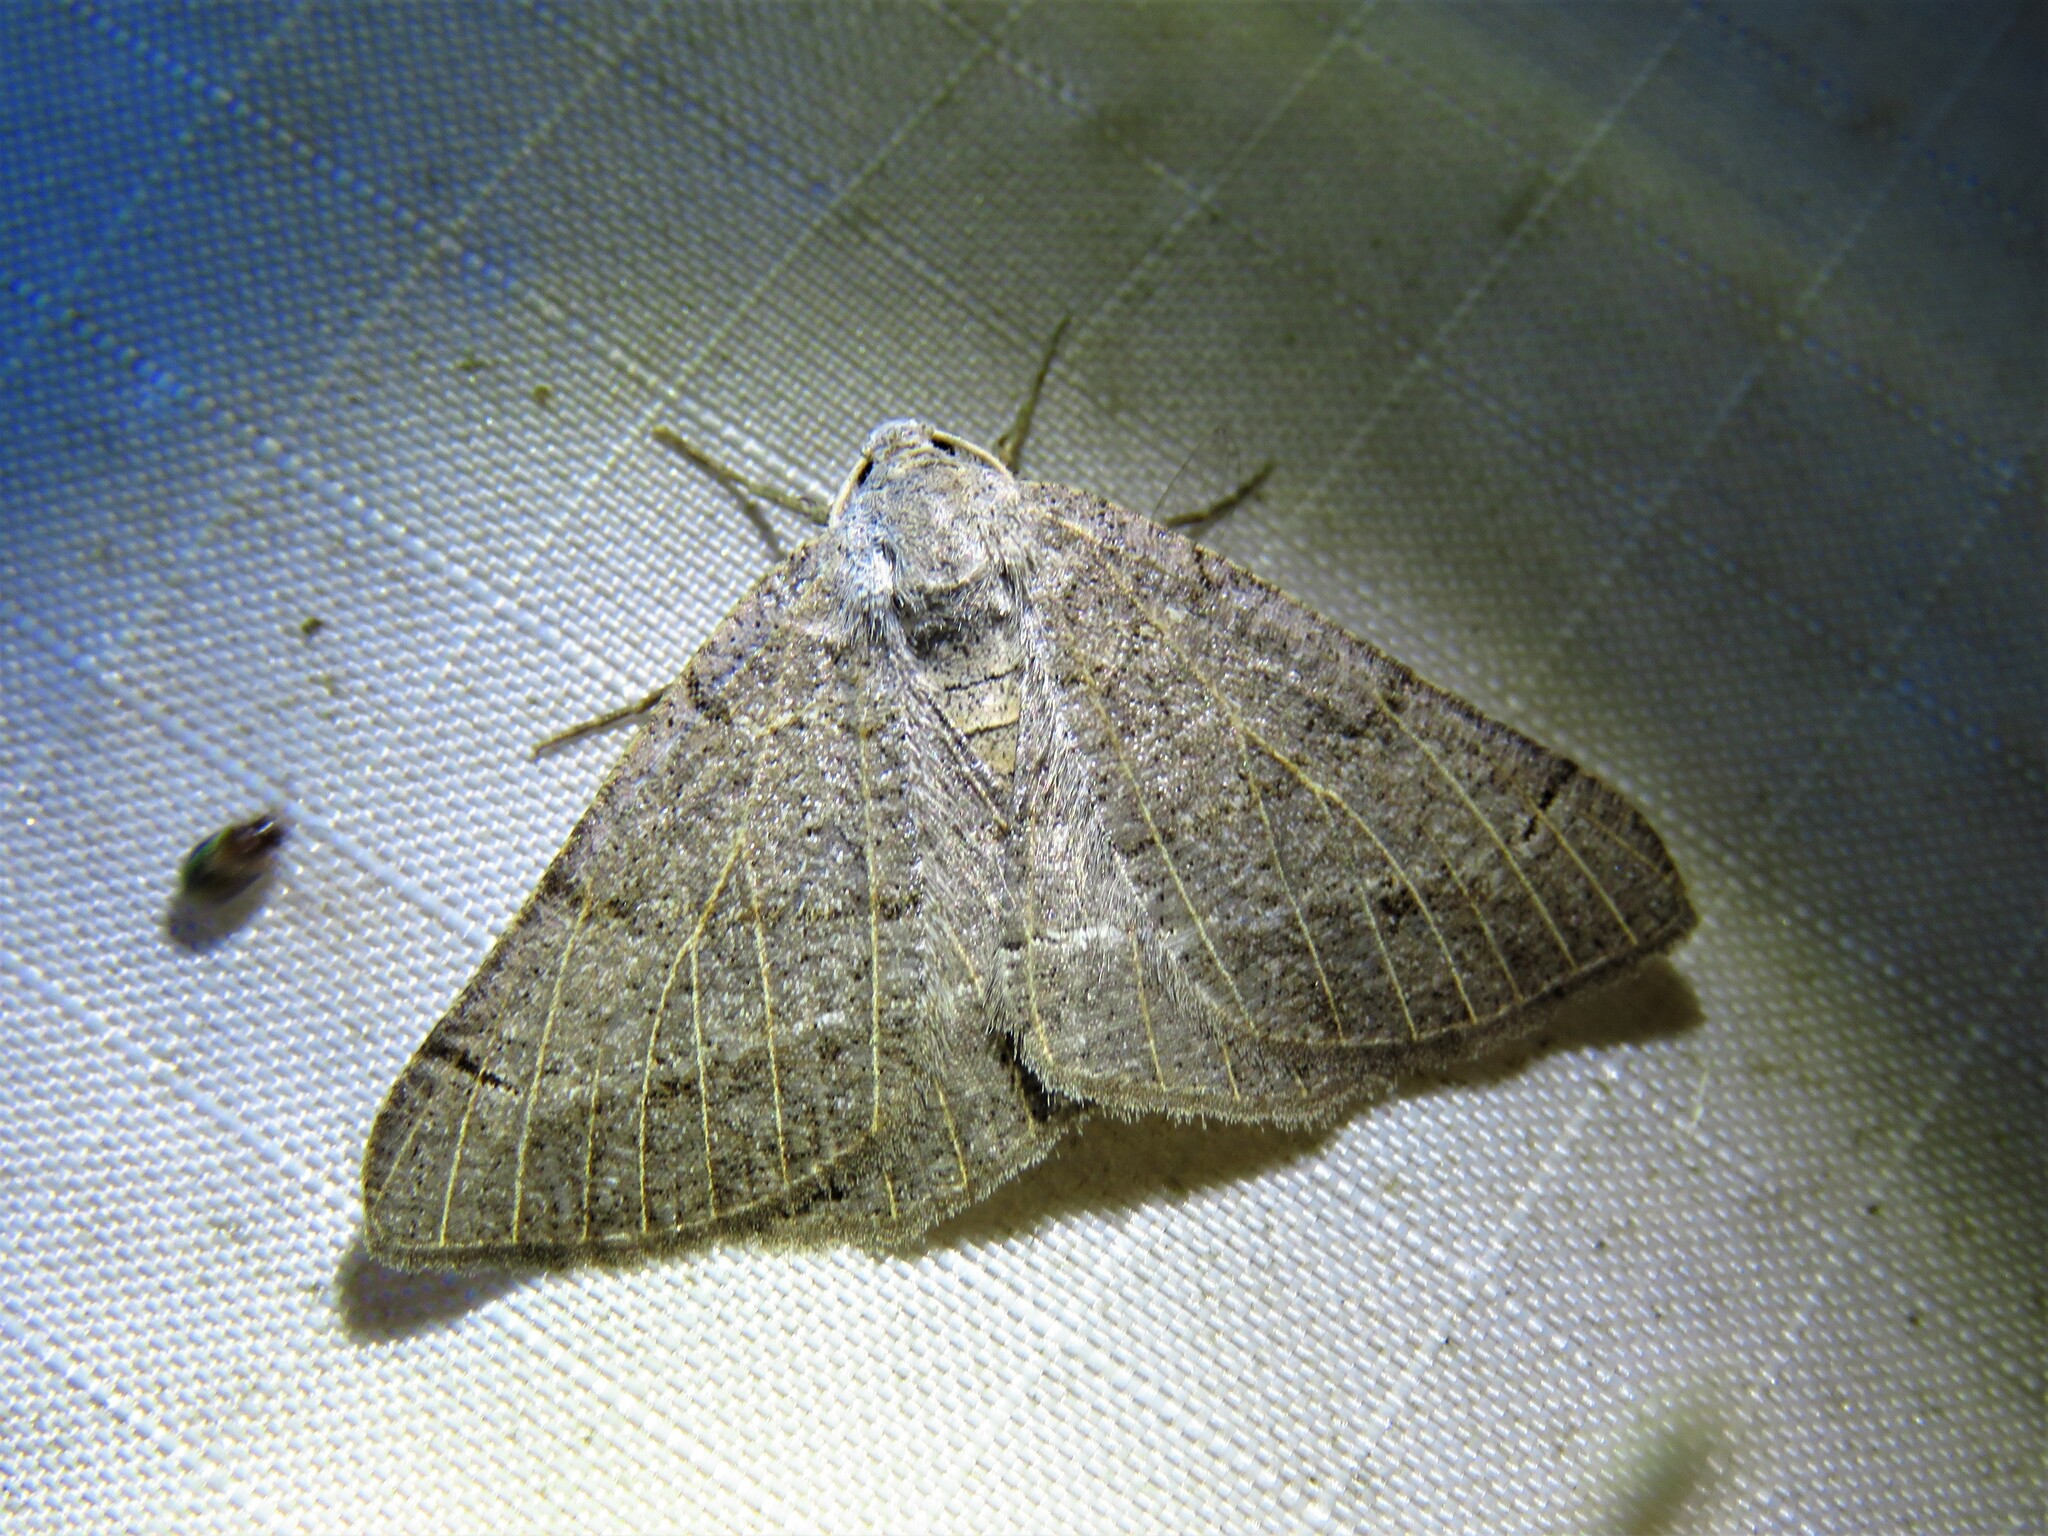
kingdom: Animalia
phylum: Arthropoda
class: Insecta
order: Lepidoptera
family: Geometridae
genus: Isturgia
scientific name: Isturgia dislocaria
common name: Pale-viened enconista
